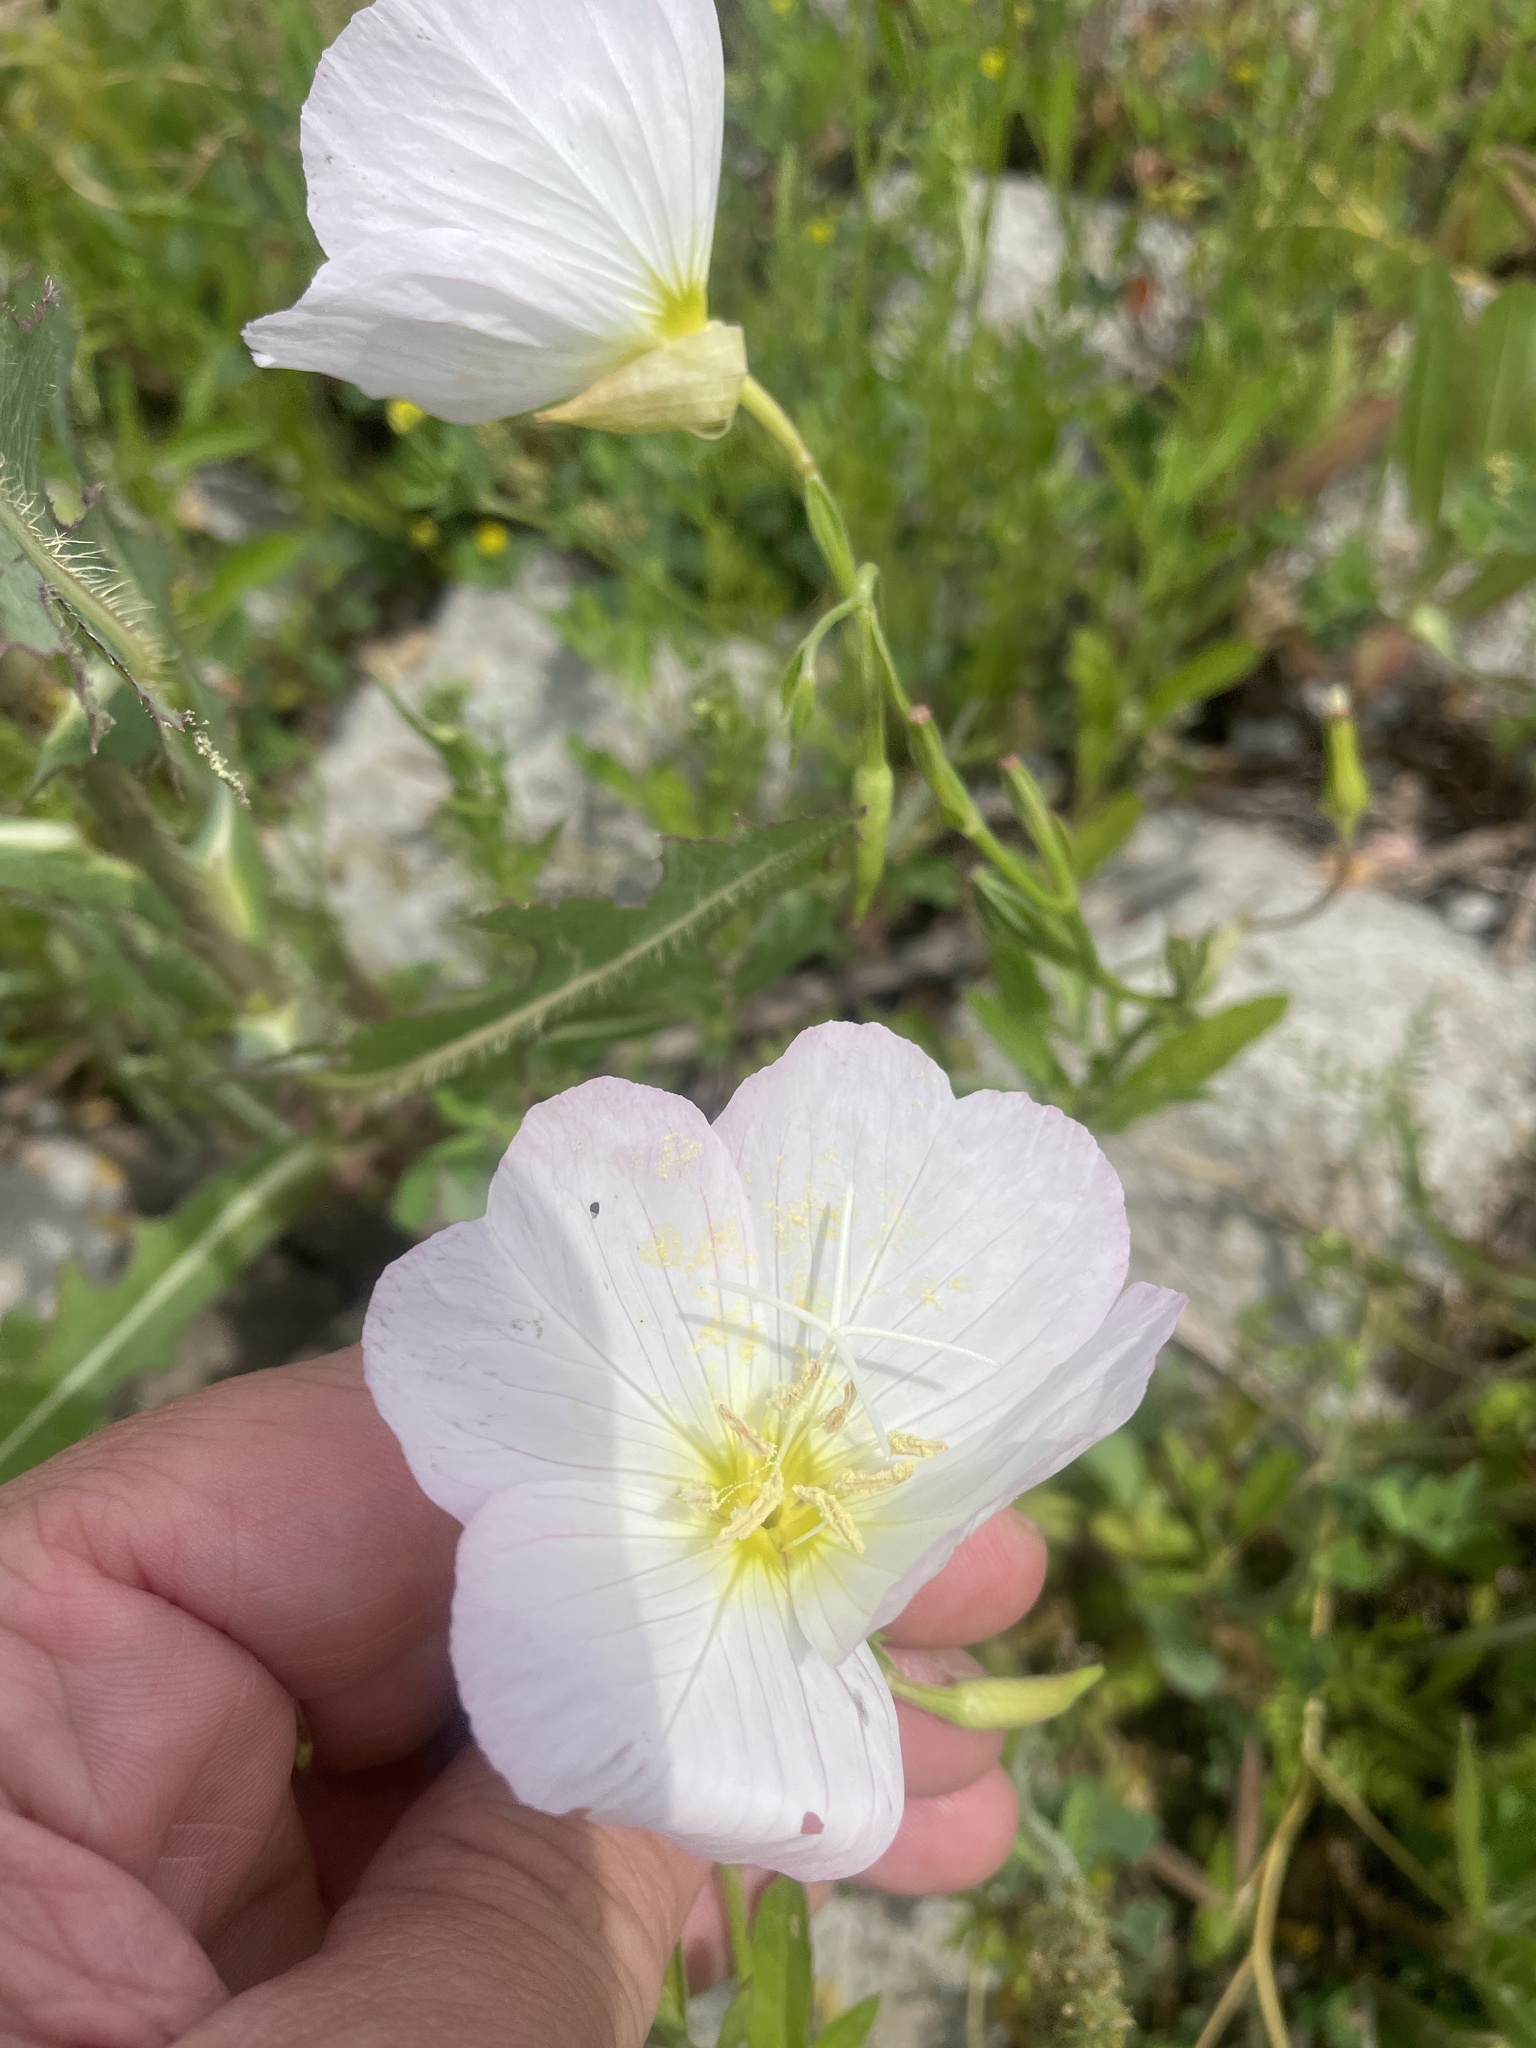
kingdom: Plantae
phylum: Tracheophyta
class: Magnoliopsida
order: Myrtales
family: Onagraceae
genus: Oenothera
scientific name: Oenothera speciosa
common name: White evening-primrose
